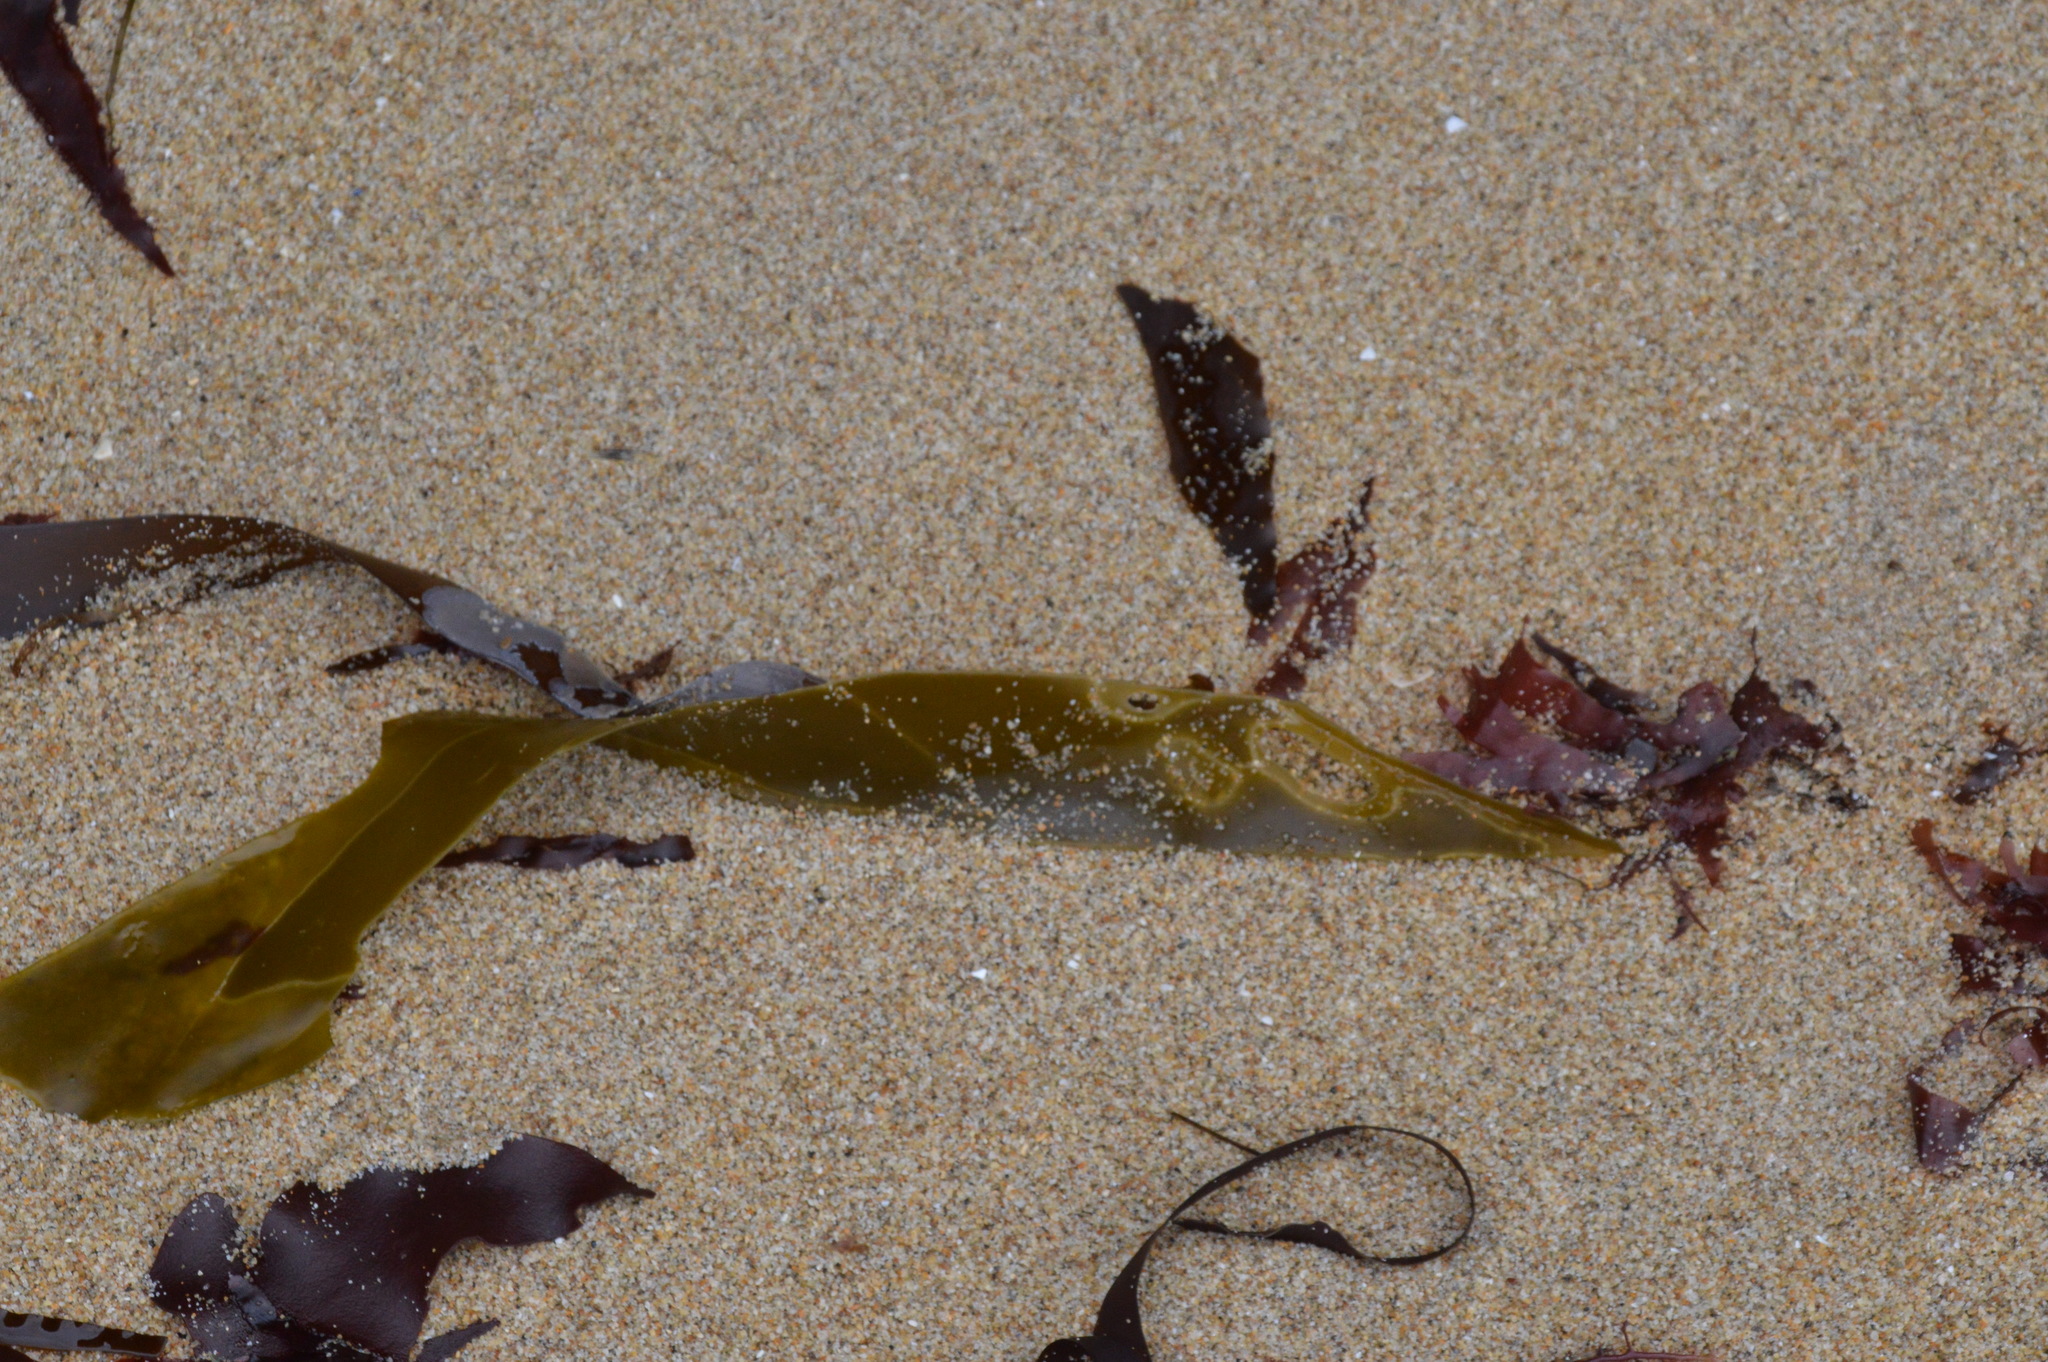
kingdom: Chromista
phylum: Ochrophyta
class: Phaeophyceae
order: Laminariales
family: Laminariaceae
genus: Nereocystis
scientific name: Nereocystis luetkeana
